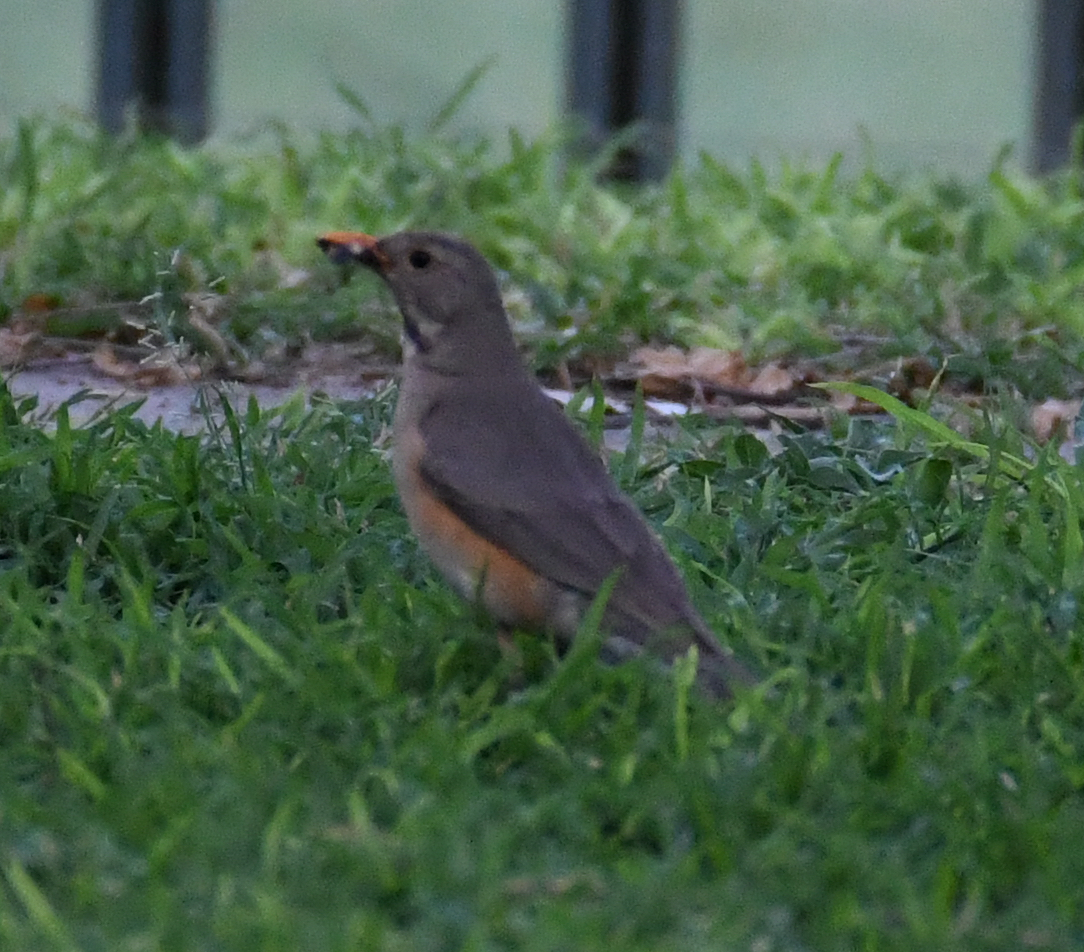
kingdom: Animalia
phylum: Chordata
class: Aves
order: Passeriformes
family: Turdidae
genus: Turdus
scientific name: Turdus libonyana
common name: Kurrichane thrush
